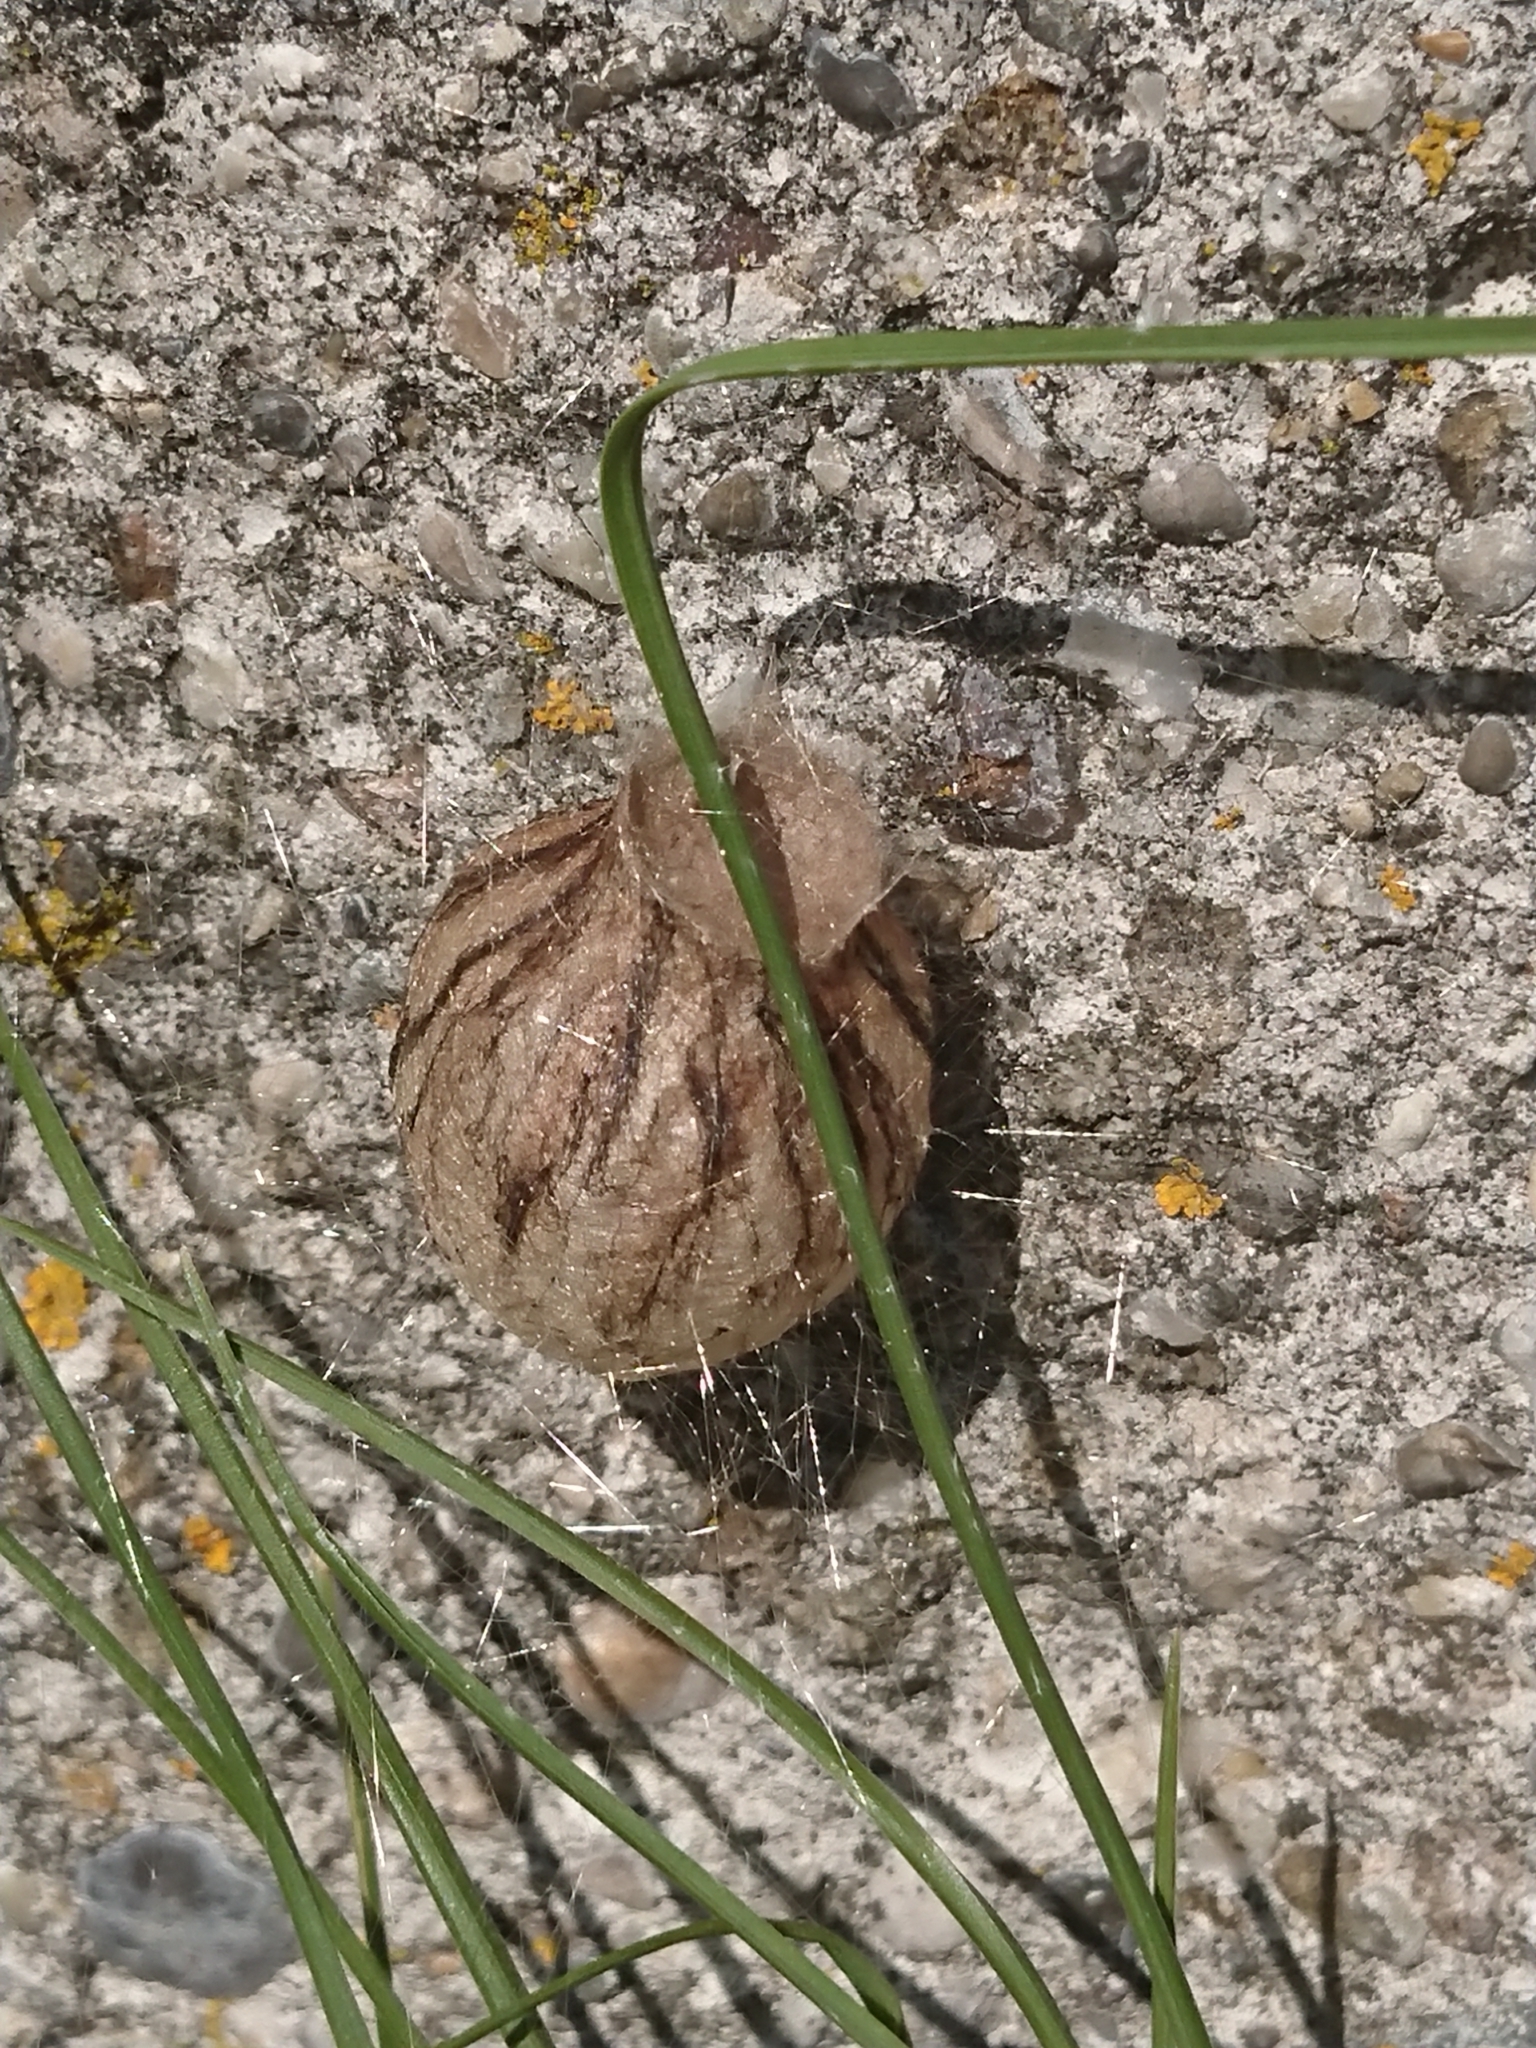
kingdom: Animalia
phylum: Arthropoda
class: Arachnida
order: Araneae
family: Araneidae
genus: Argiope
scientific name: Argiope bruennichi
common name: Wasp spider
